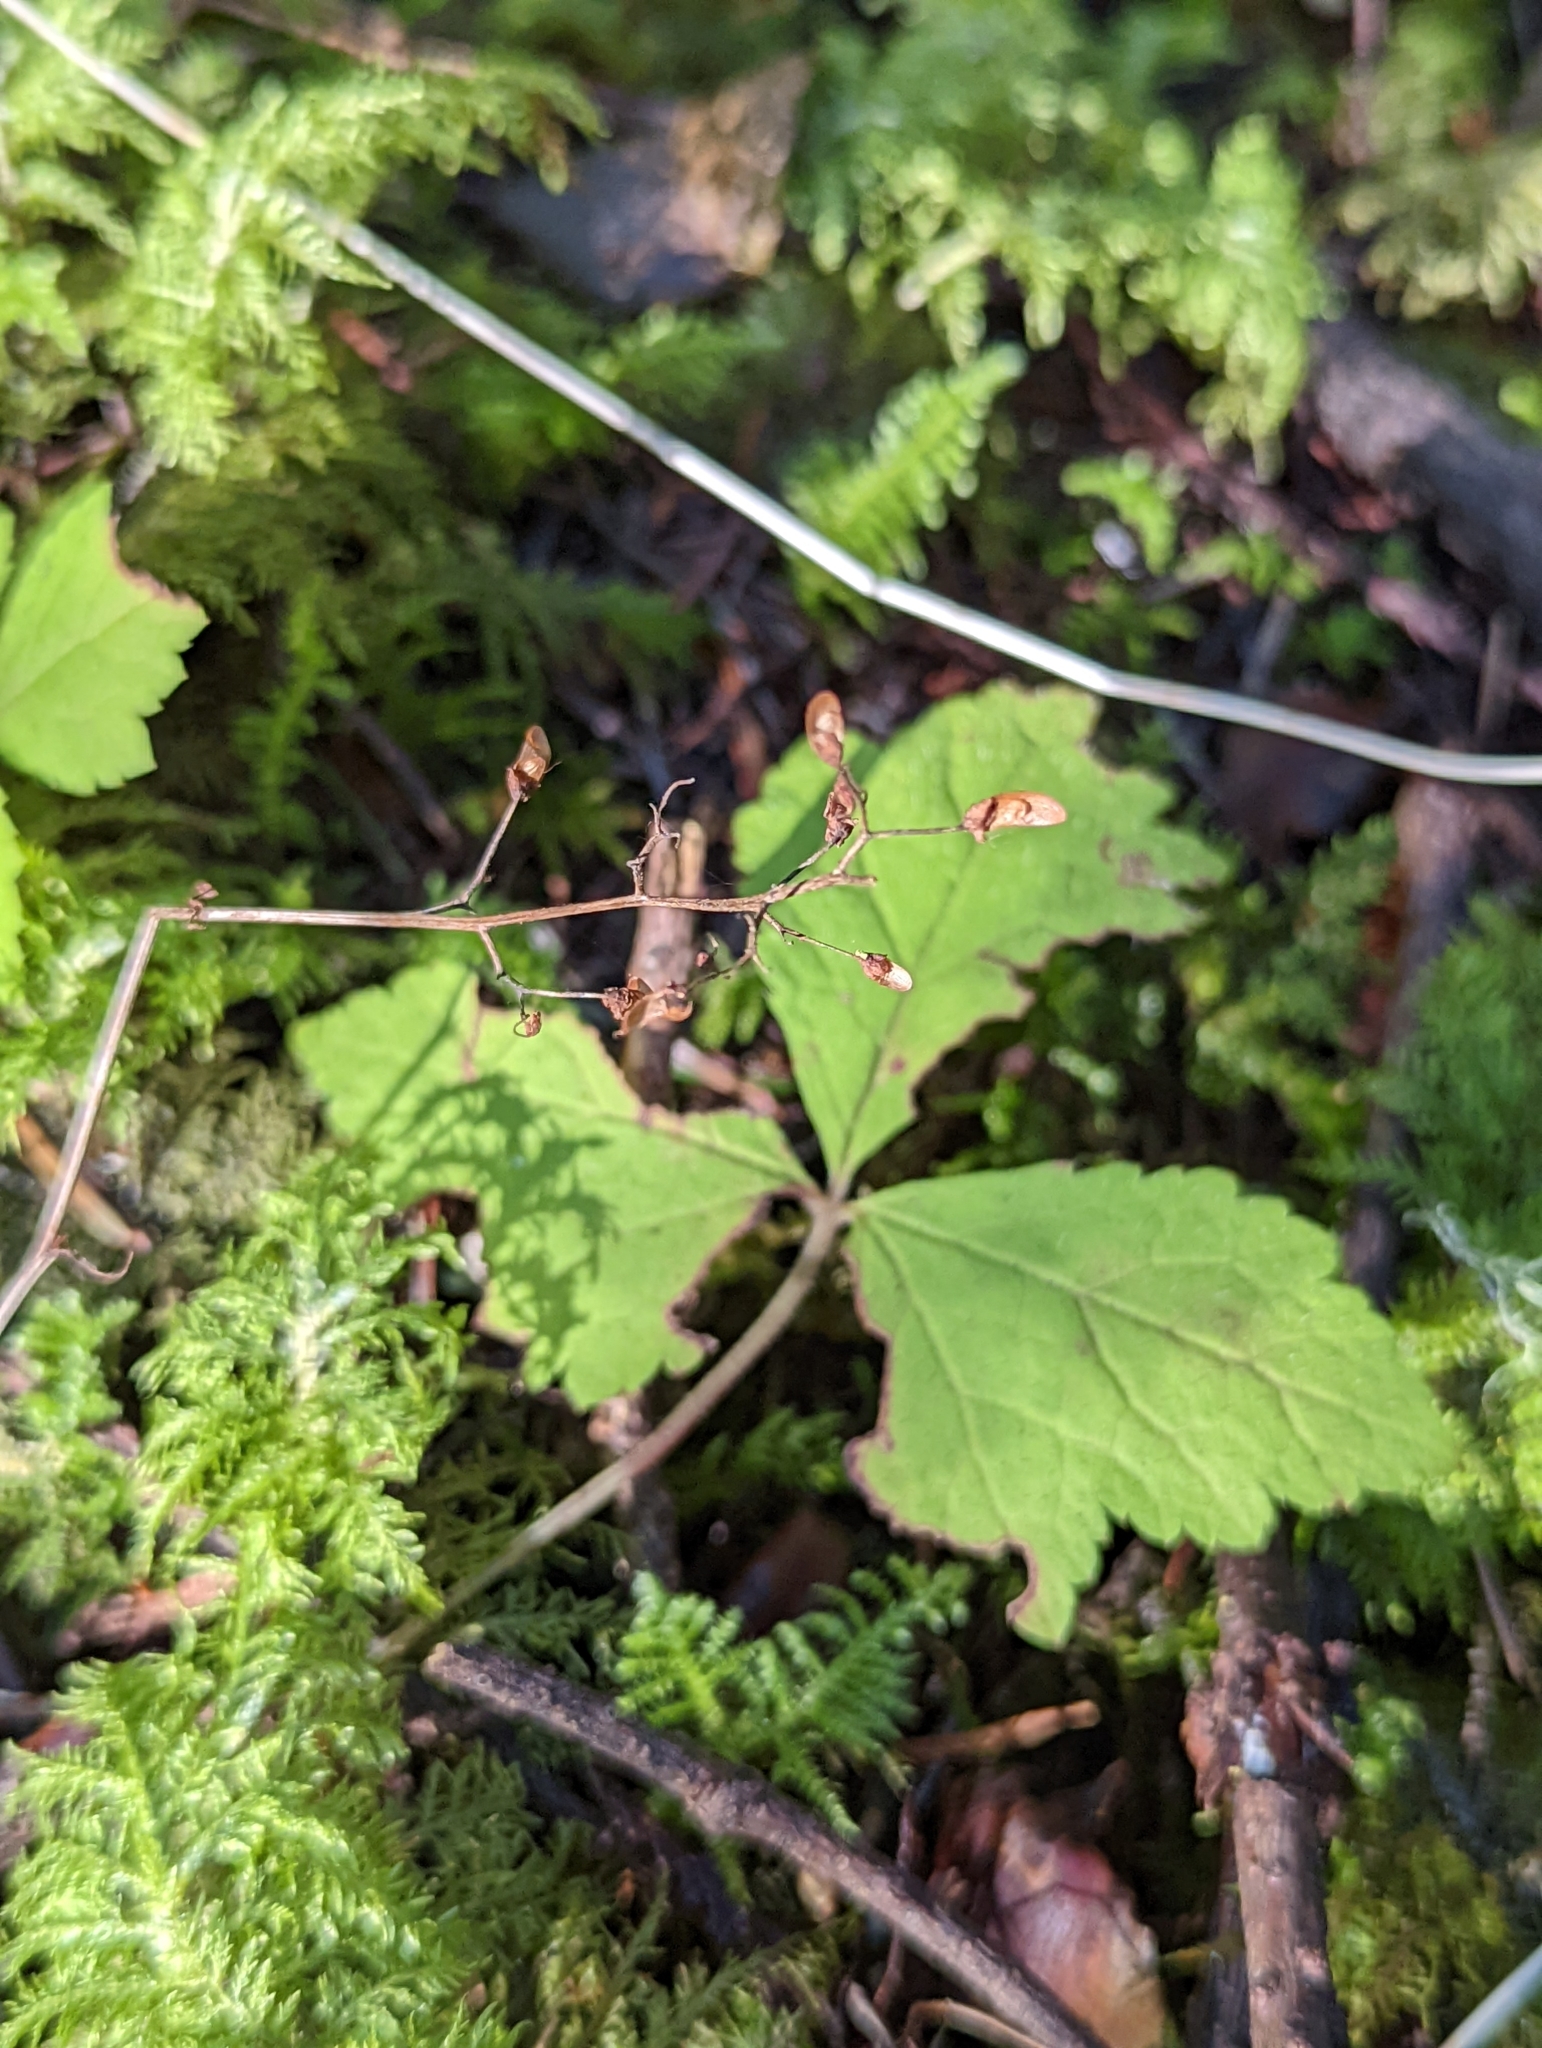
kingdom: Plantae
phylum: Tracheophyta
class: Magnoliopsida
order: Saxifragales
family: Saxifragaceae
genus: Tiarella
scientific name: Tiarella trifoliata
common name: Sugar-scoop
